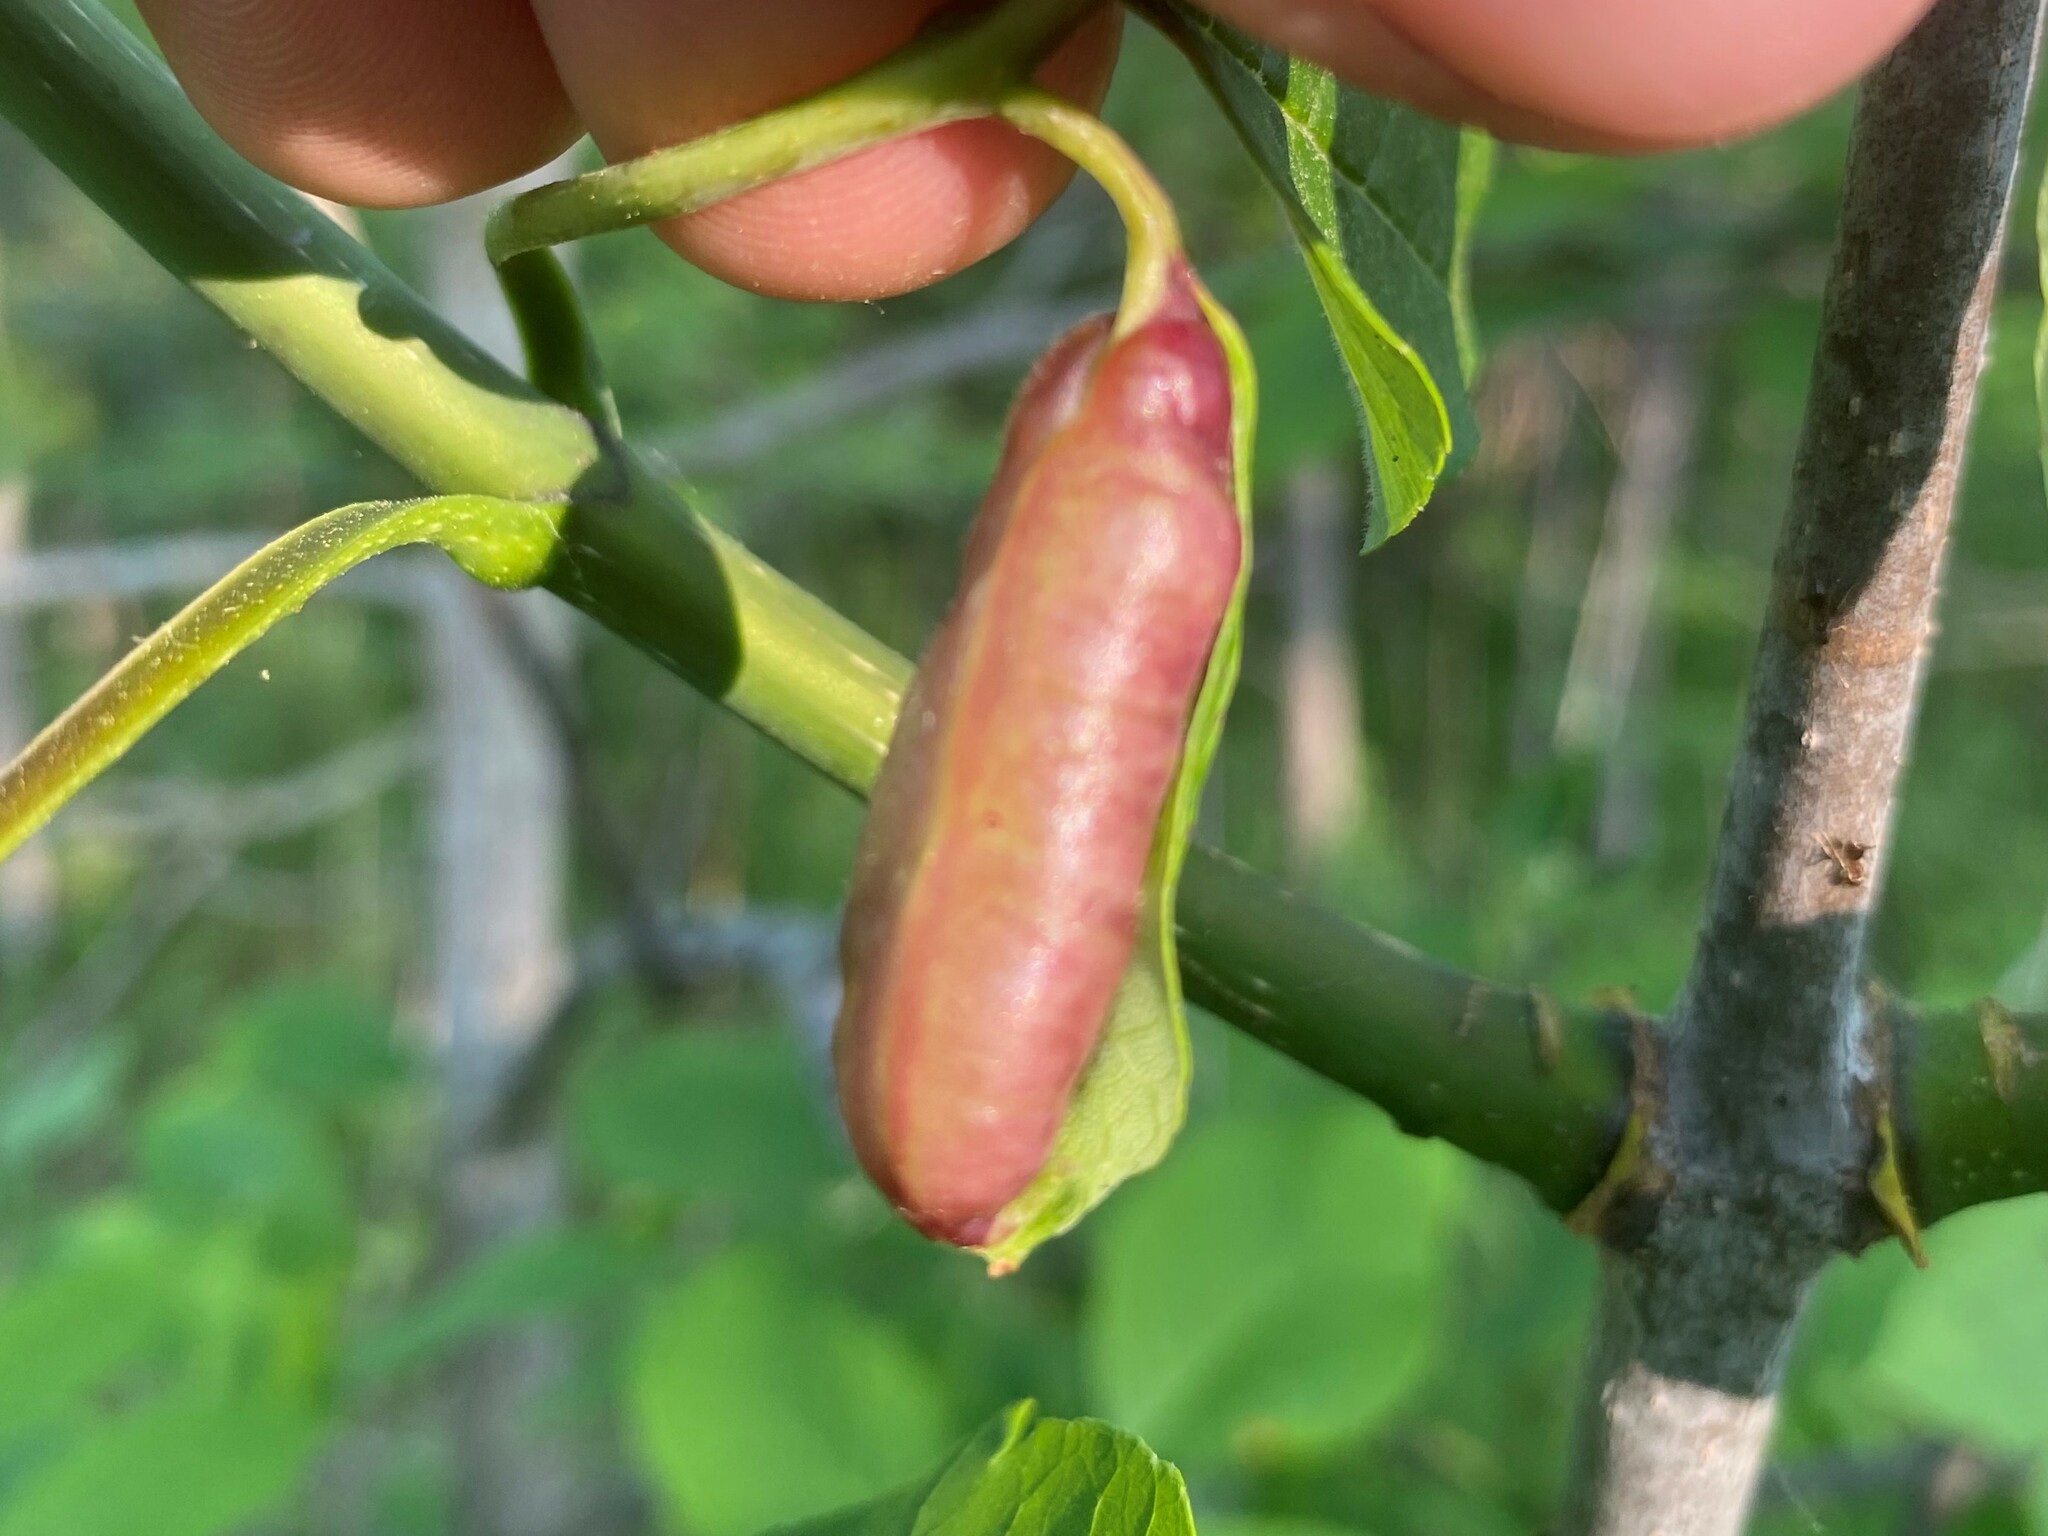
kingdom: Animalia
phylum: Arthropoda
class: Insecta
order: Diptera
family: Cecidomyiidae
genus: Dasineura
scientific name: Dasineura tumidosae
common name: Ash petiole gall midge
